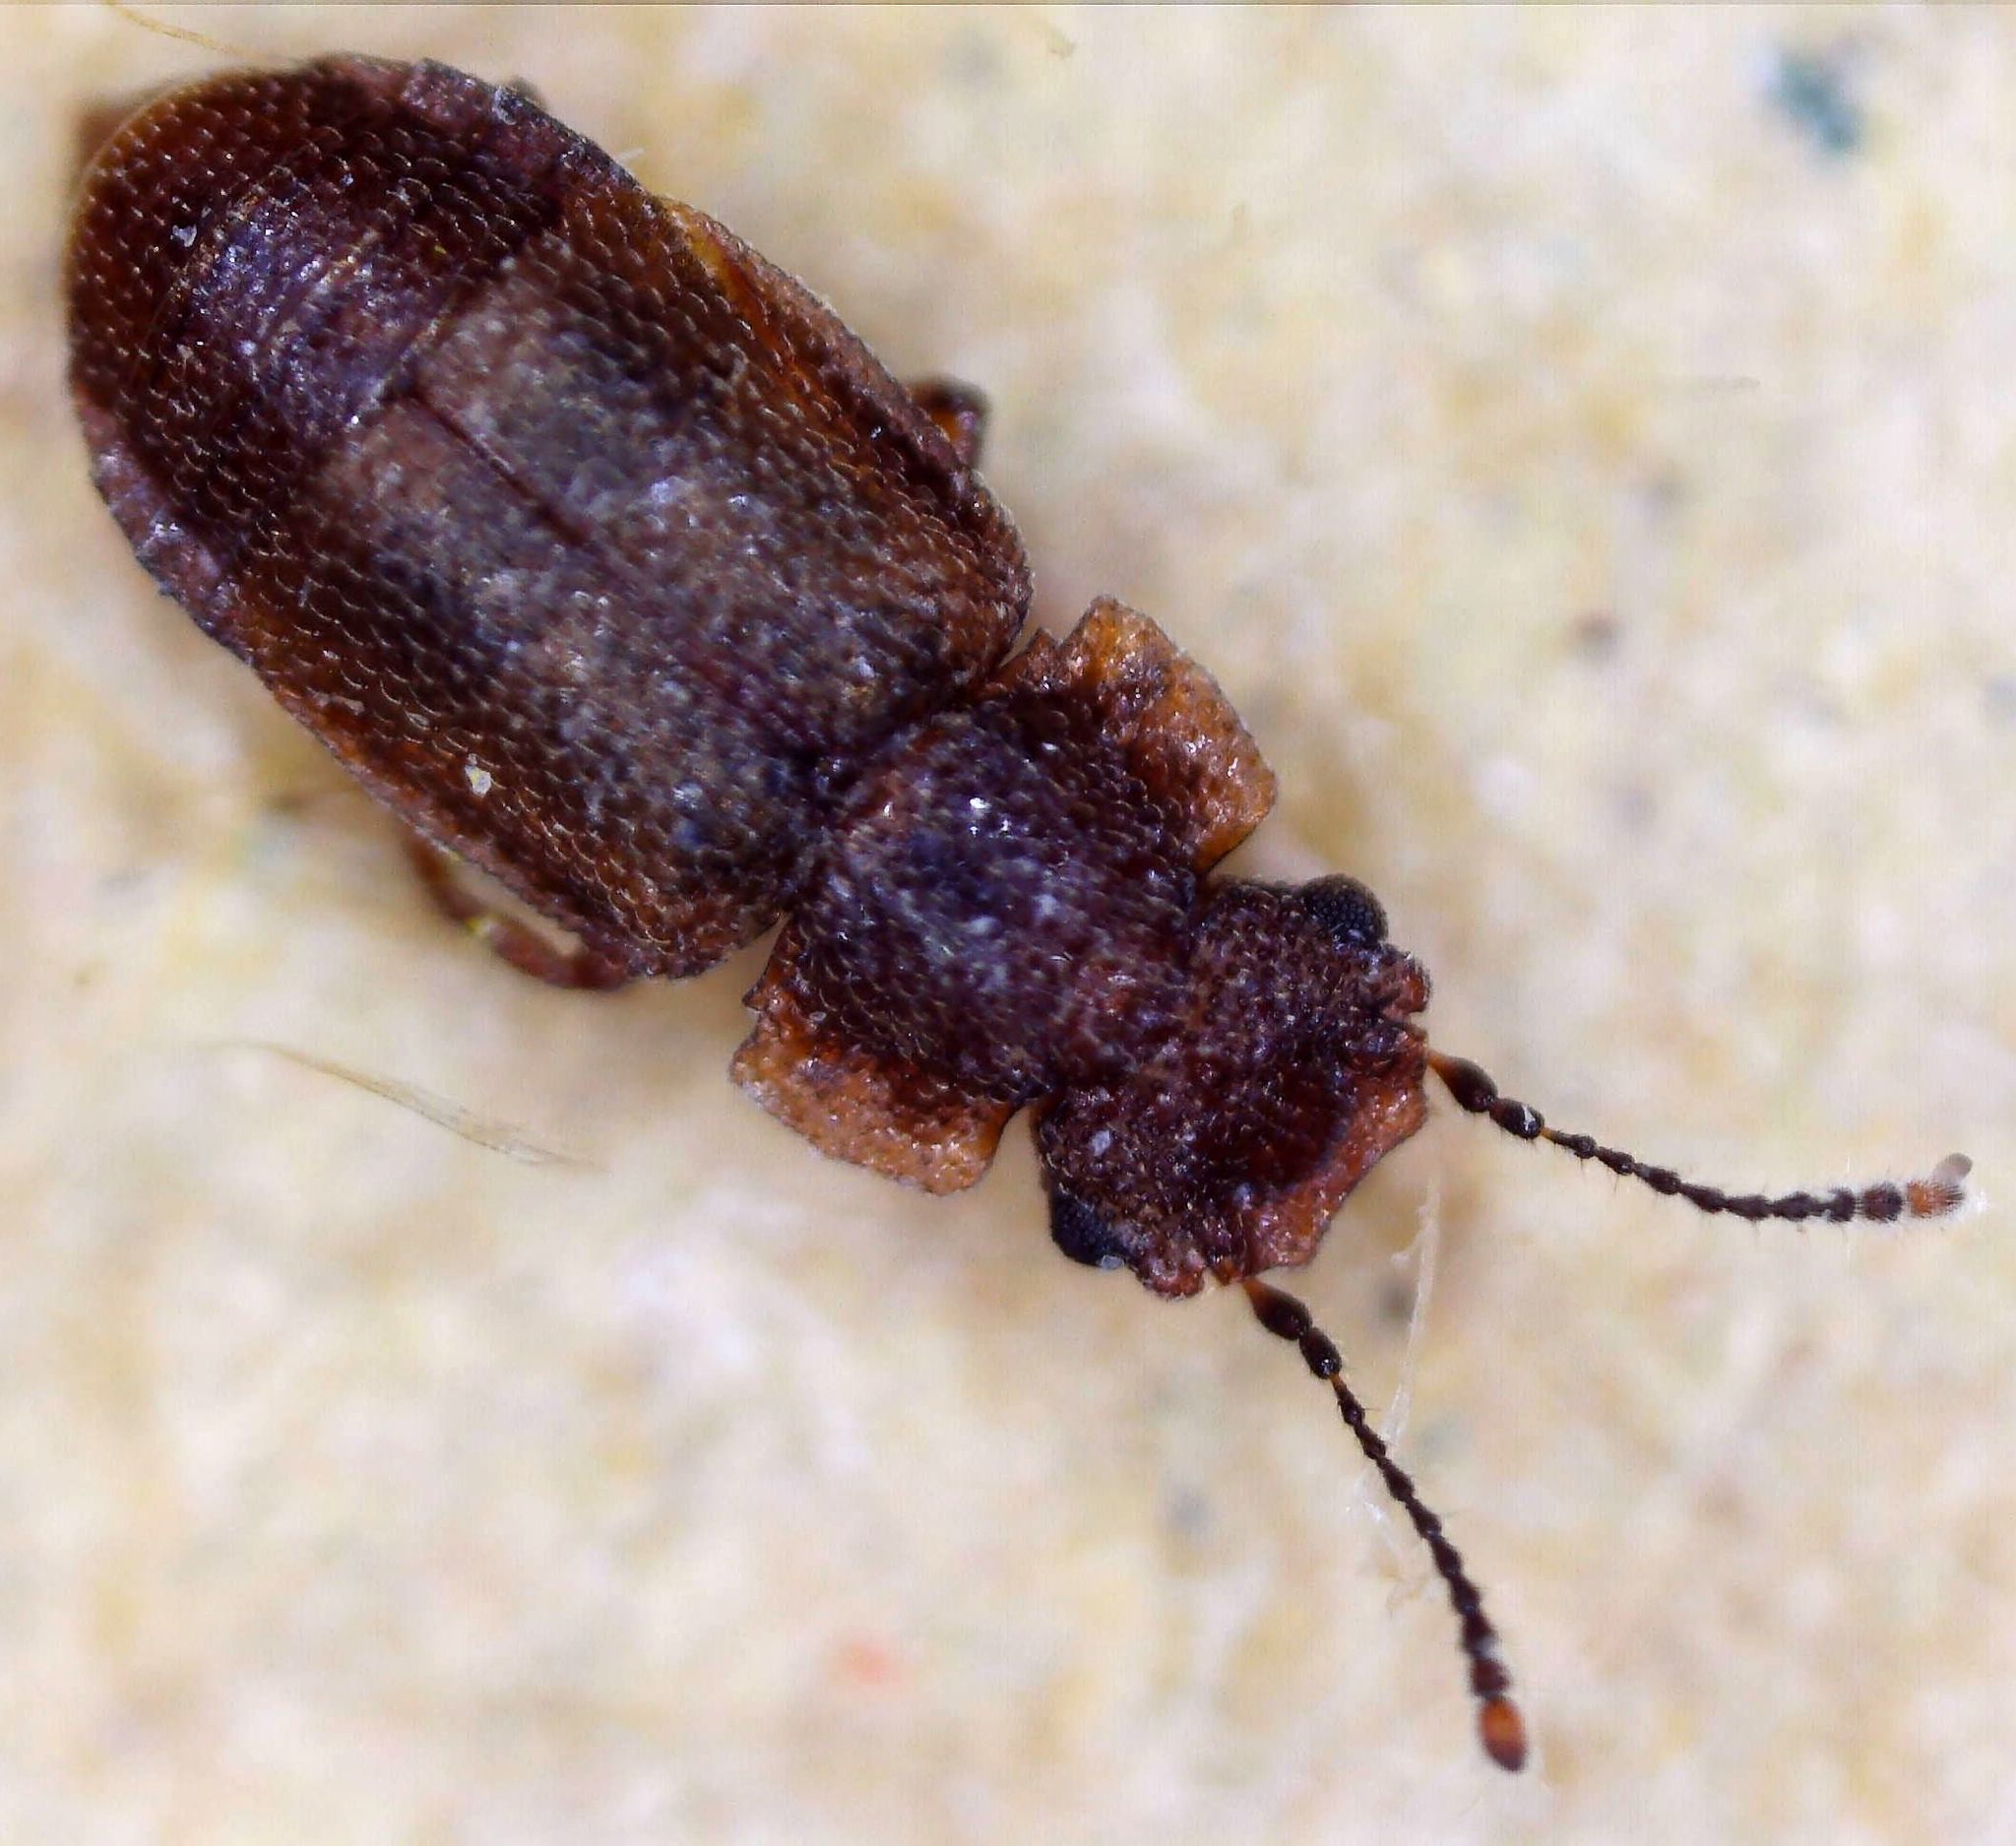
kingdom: Animalia
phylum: Arthropoda
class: Insecta
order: Coleoptera
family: Staphylinidae
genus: Metopsia
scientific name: Metopsia clypeata
